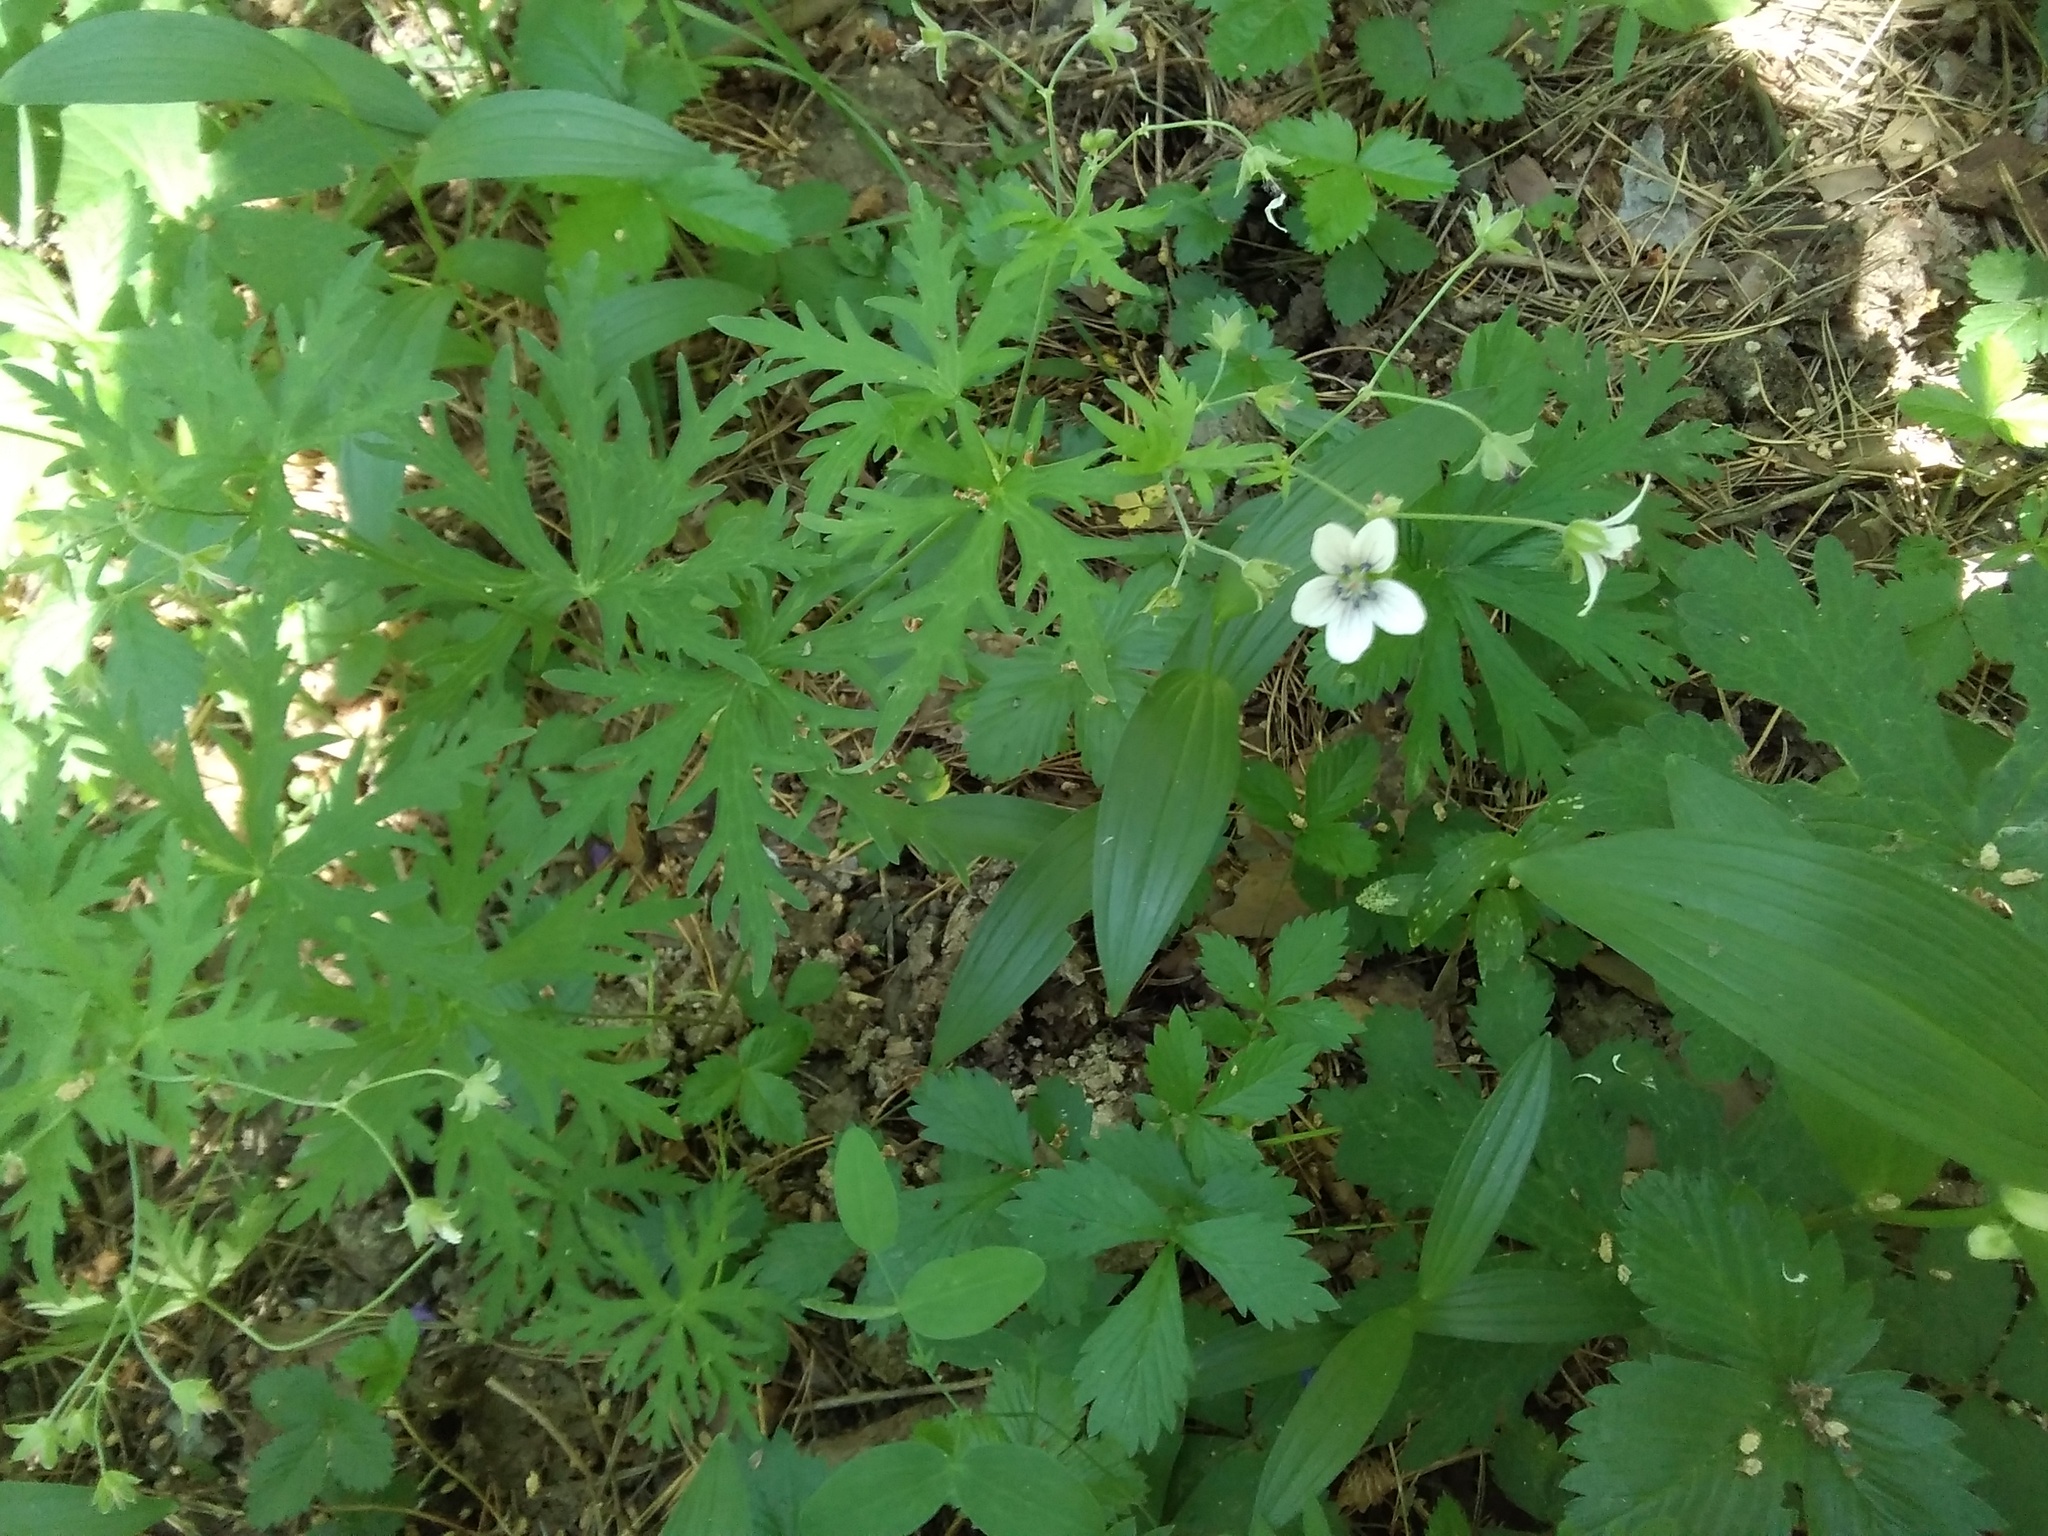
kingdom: Plantae
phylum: Tracheophyta
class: Magnoliopsida
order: Geraniales
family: Geraniaceae
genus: Geranium
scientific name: Geranium pseudosibiricum
